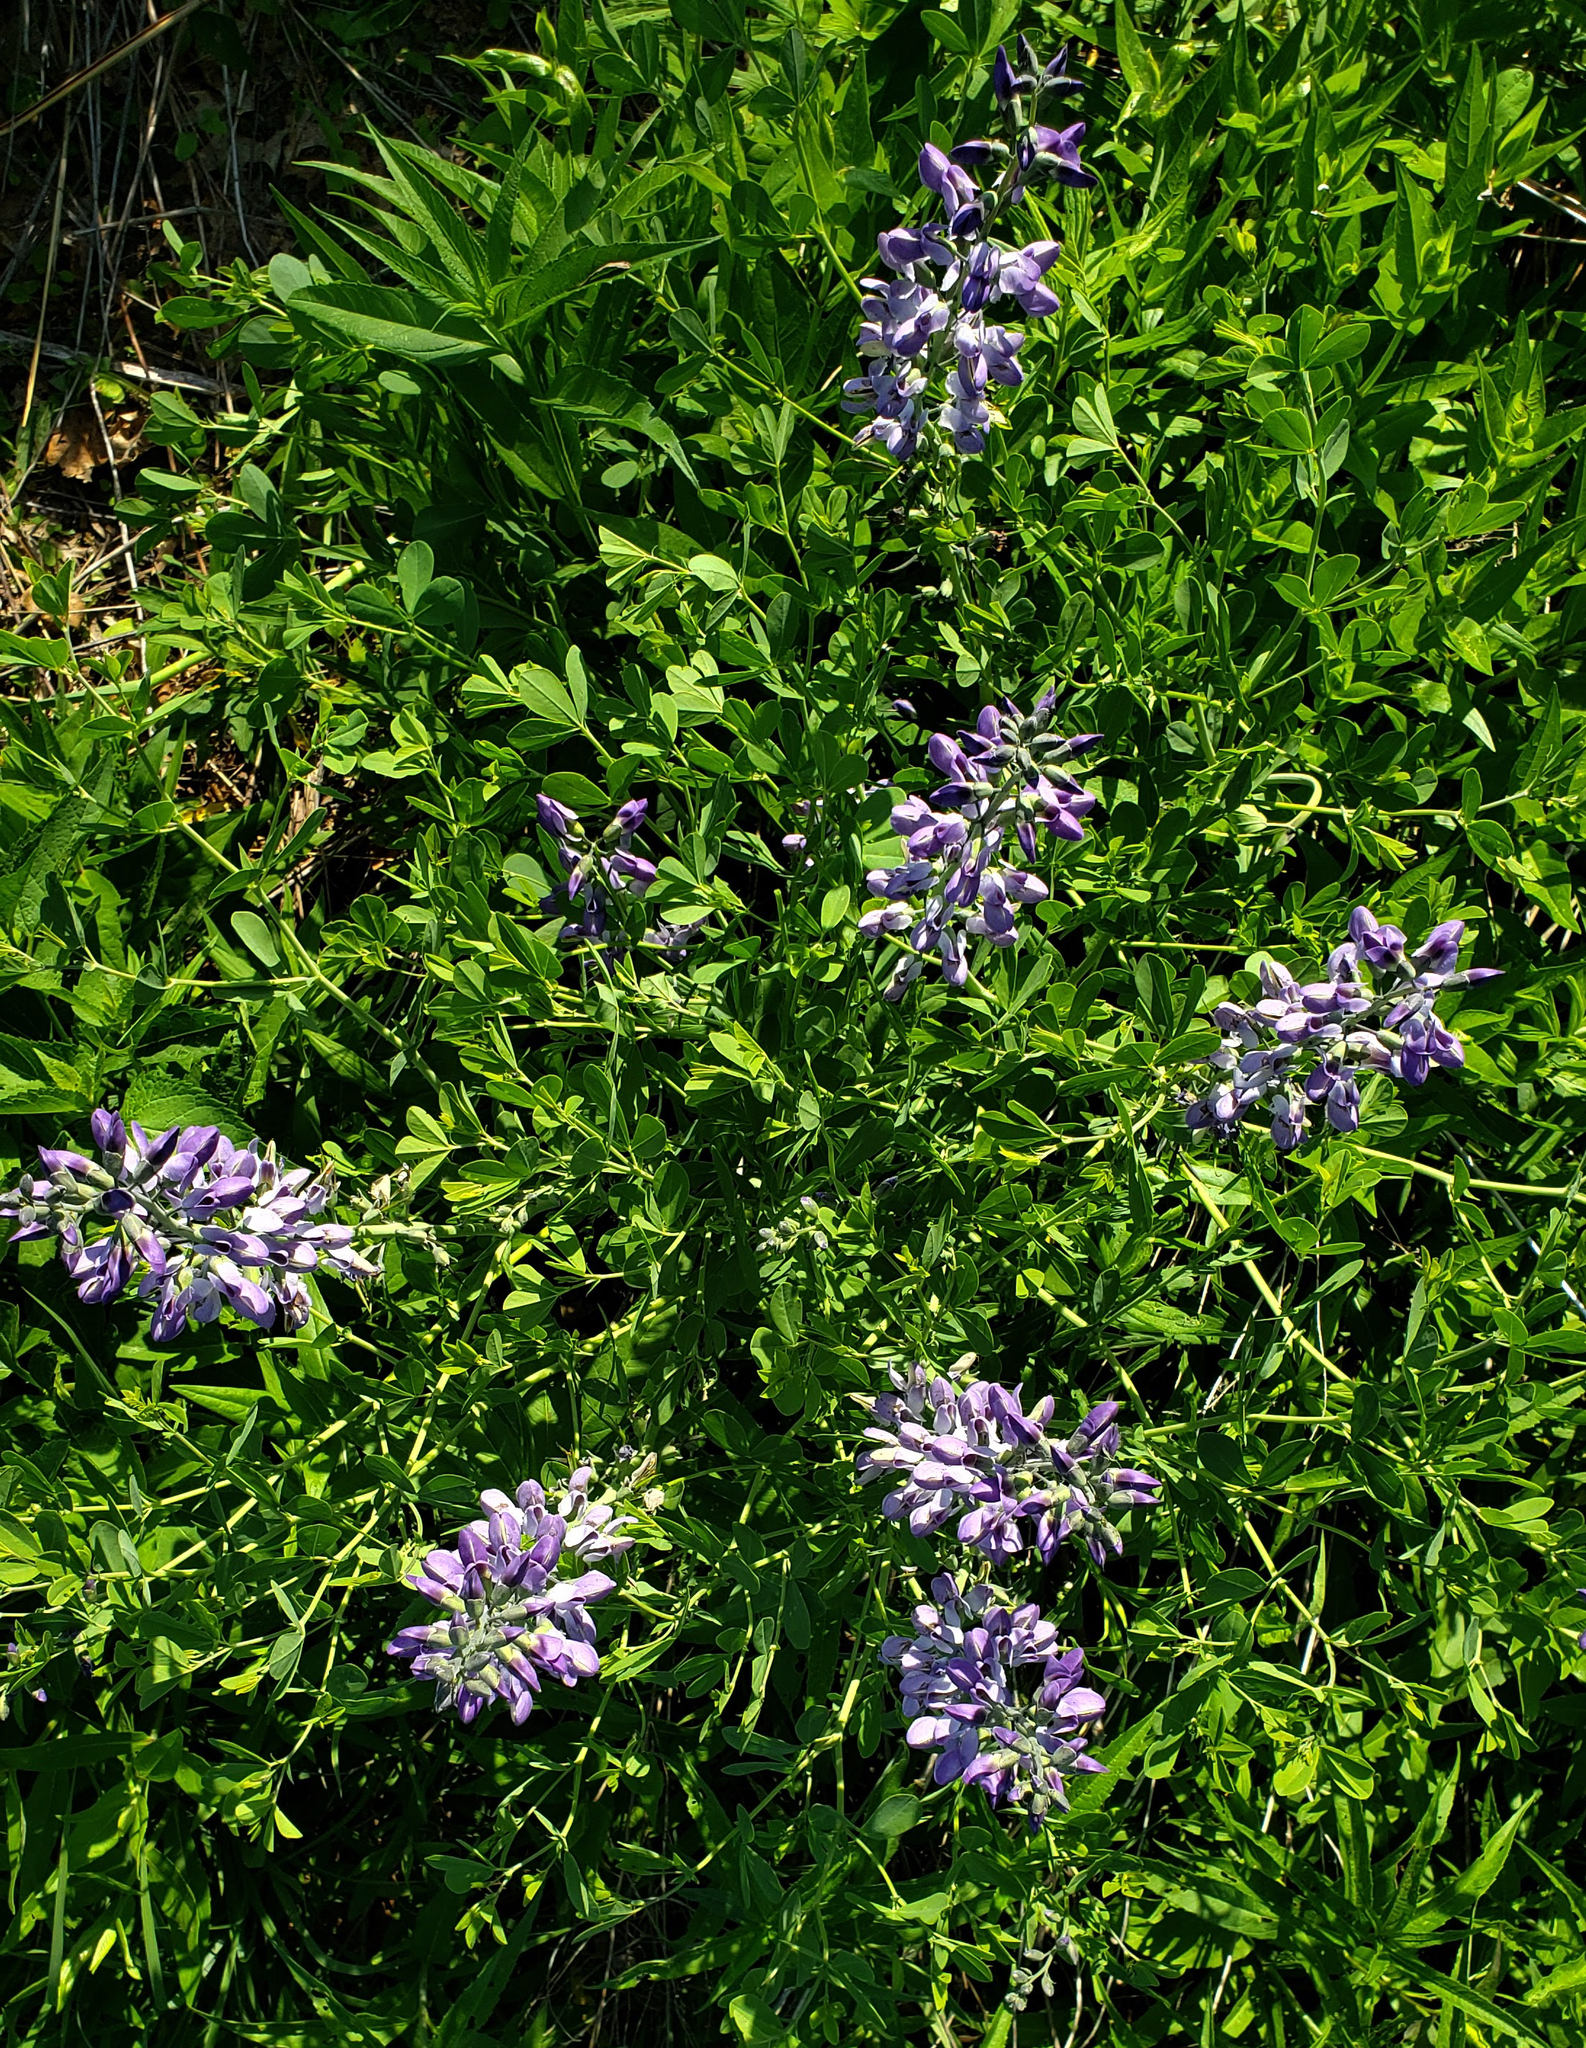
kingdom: Plantae
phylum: Tracheophyta
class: Magnoliopsida
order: Fabales
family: Fabaceae
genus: Baptisia
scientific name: Baptisia australis
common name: Blue false indigo
